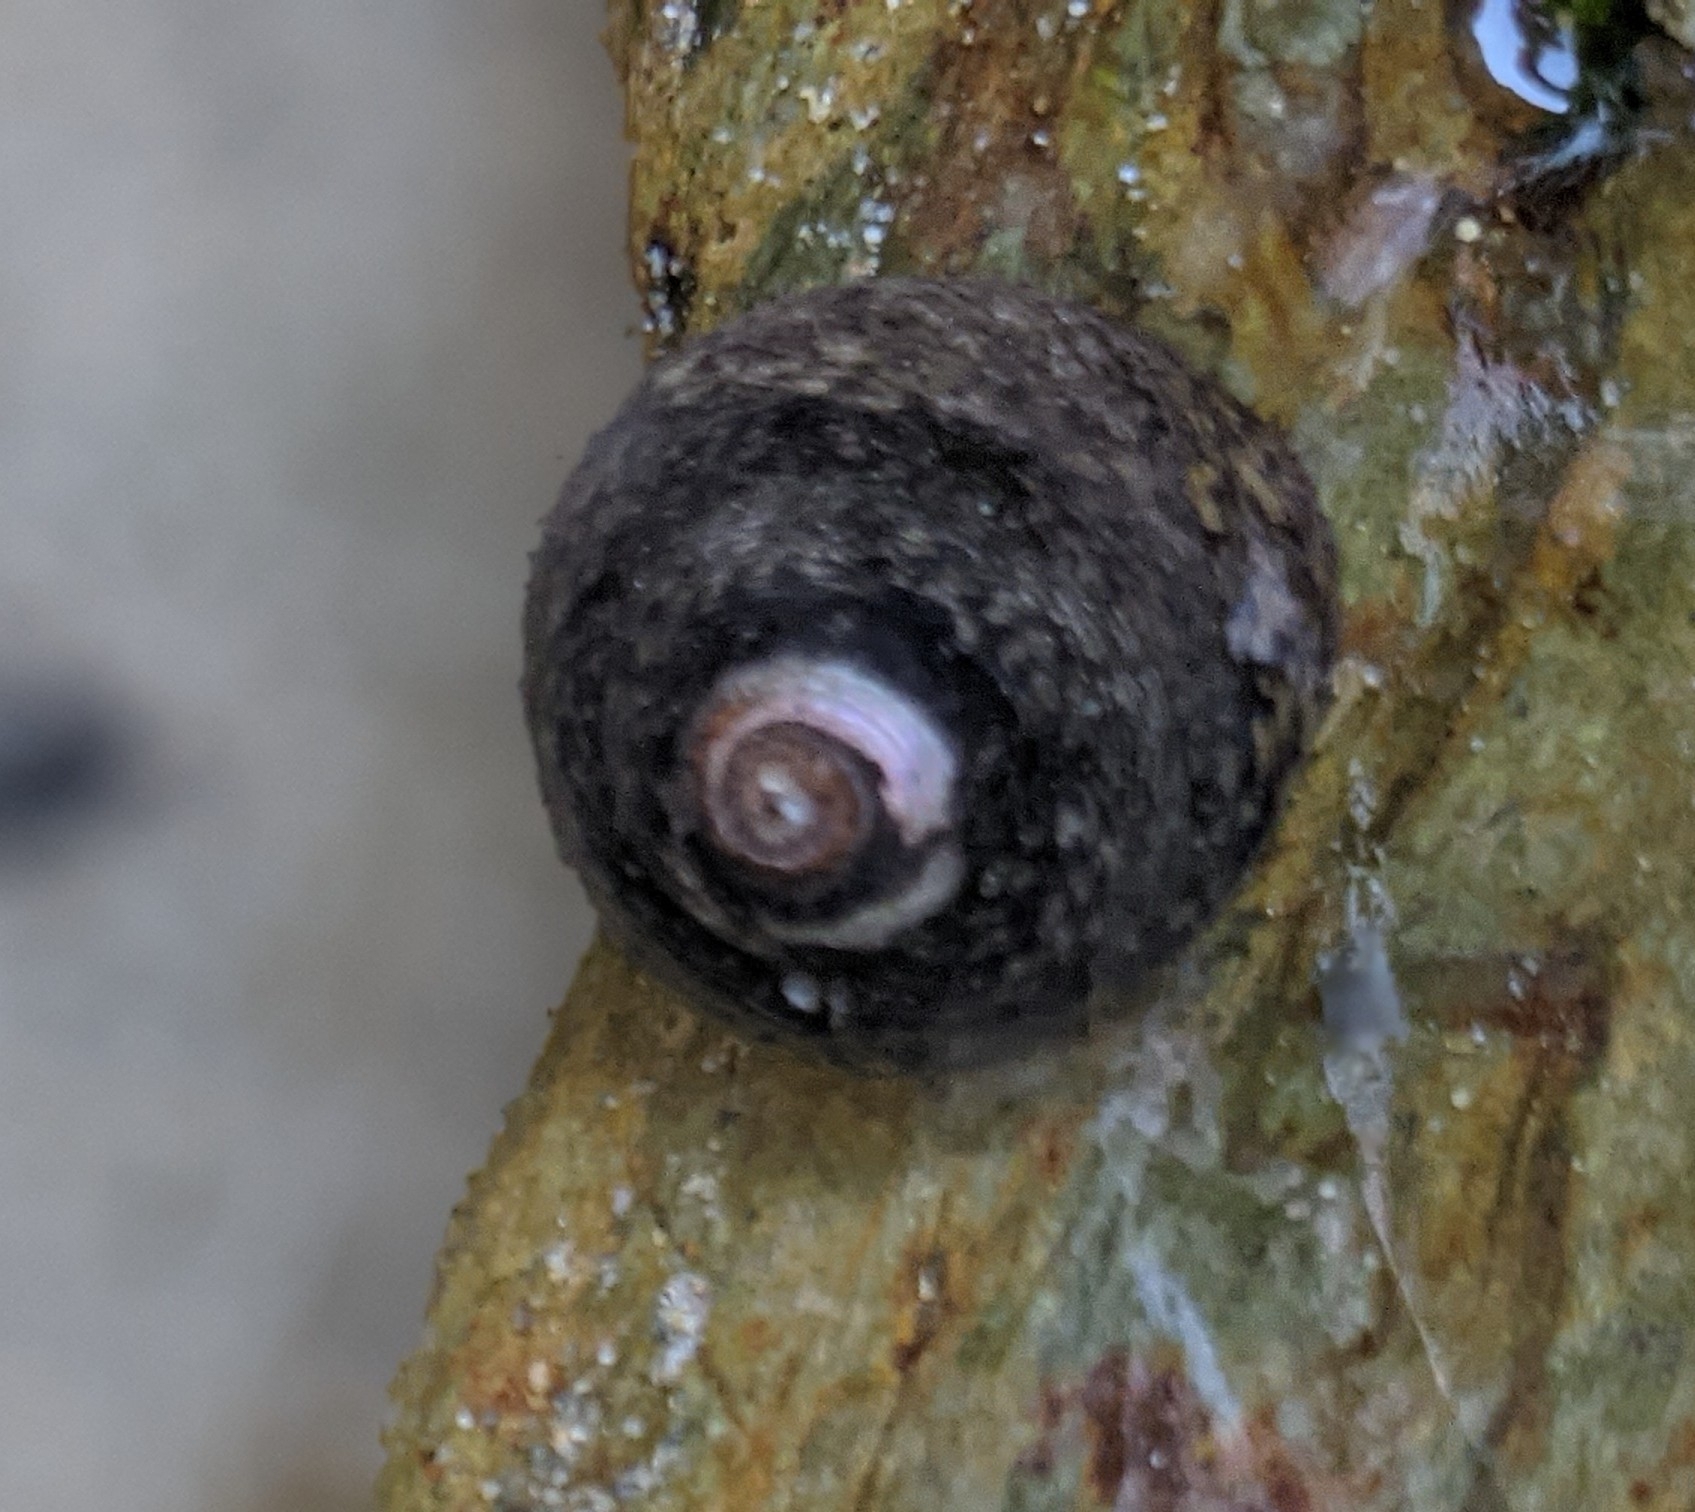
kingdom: Animalia
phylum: Mollusca
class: Gastropoda
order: Trochida
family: Trochidae
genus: Phorcus
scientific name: Phorcus lineatus
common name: Toothed top shell
